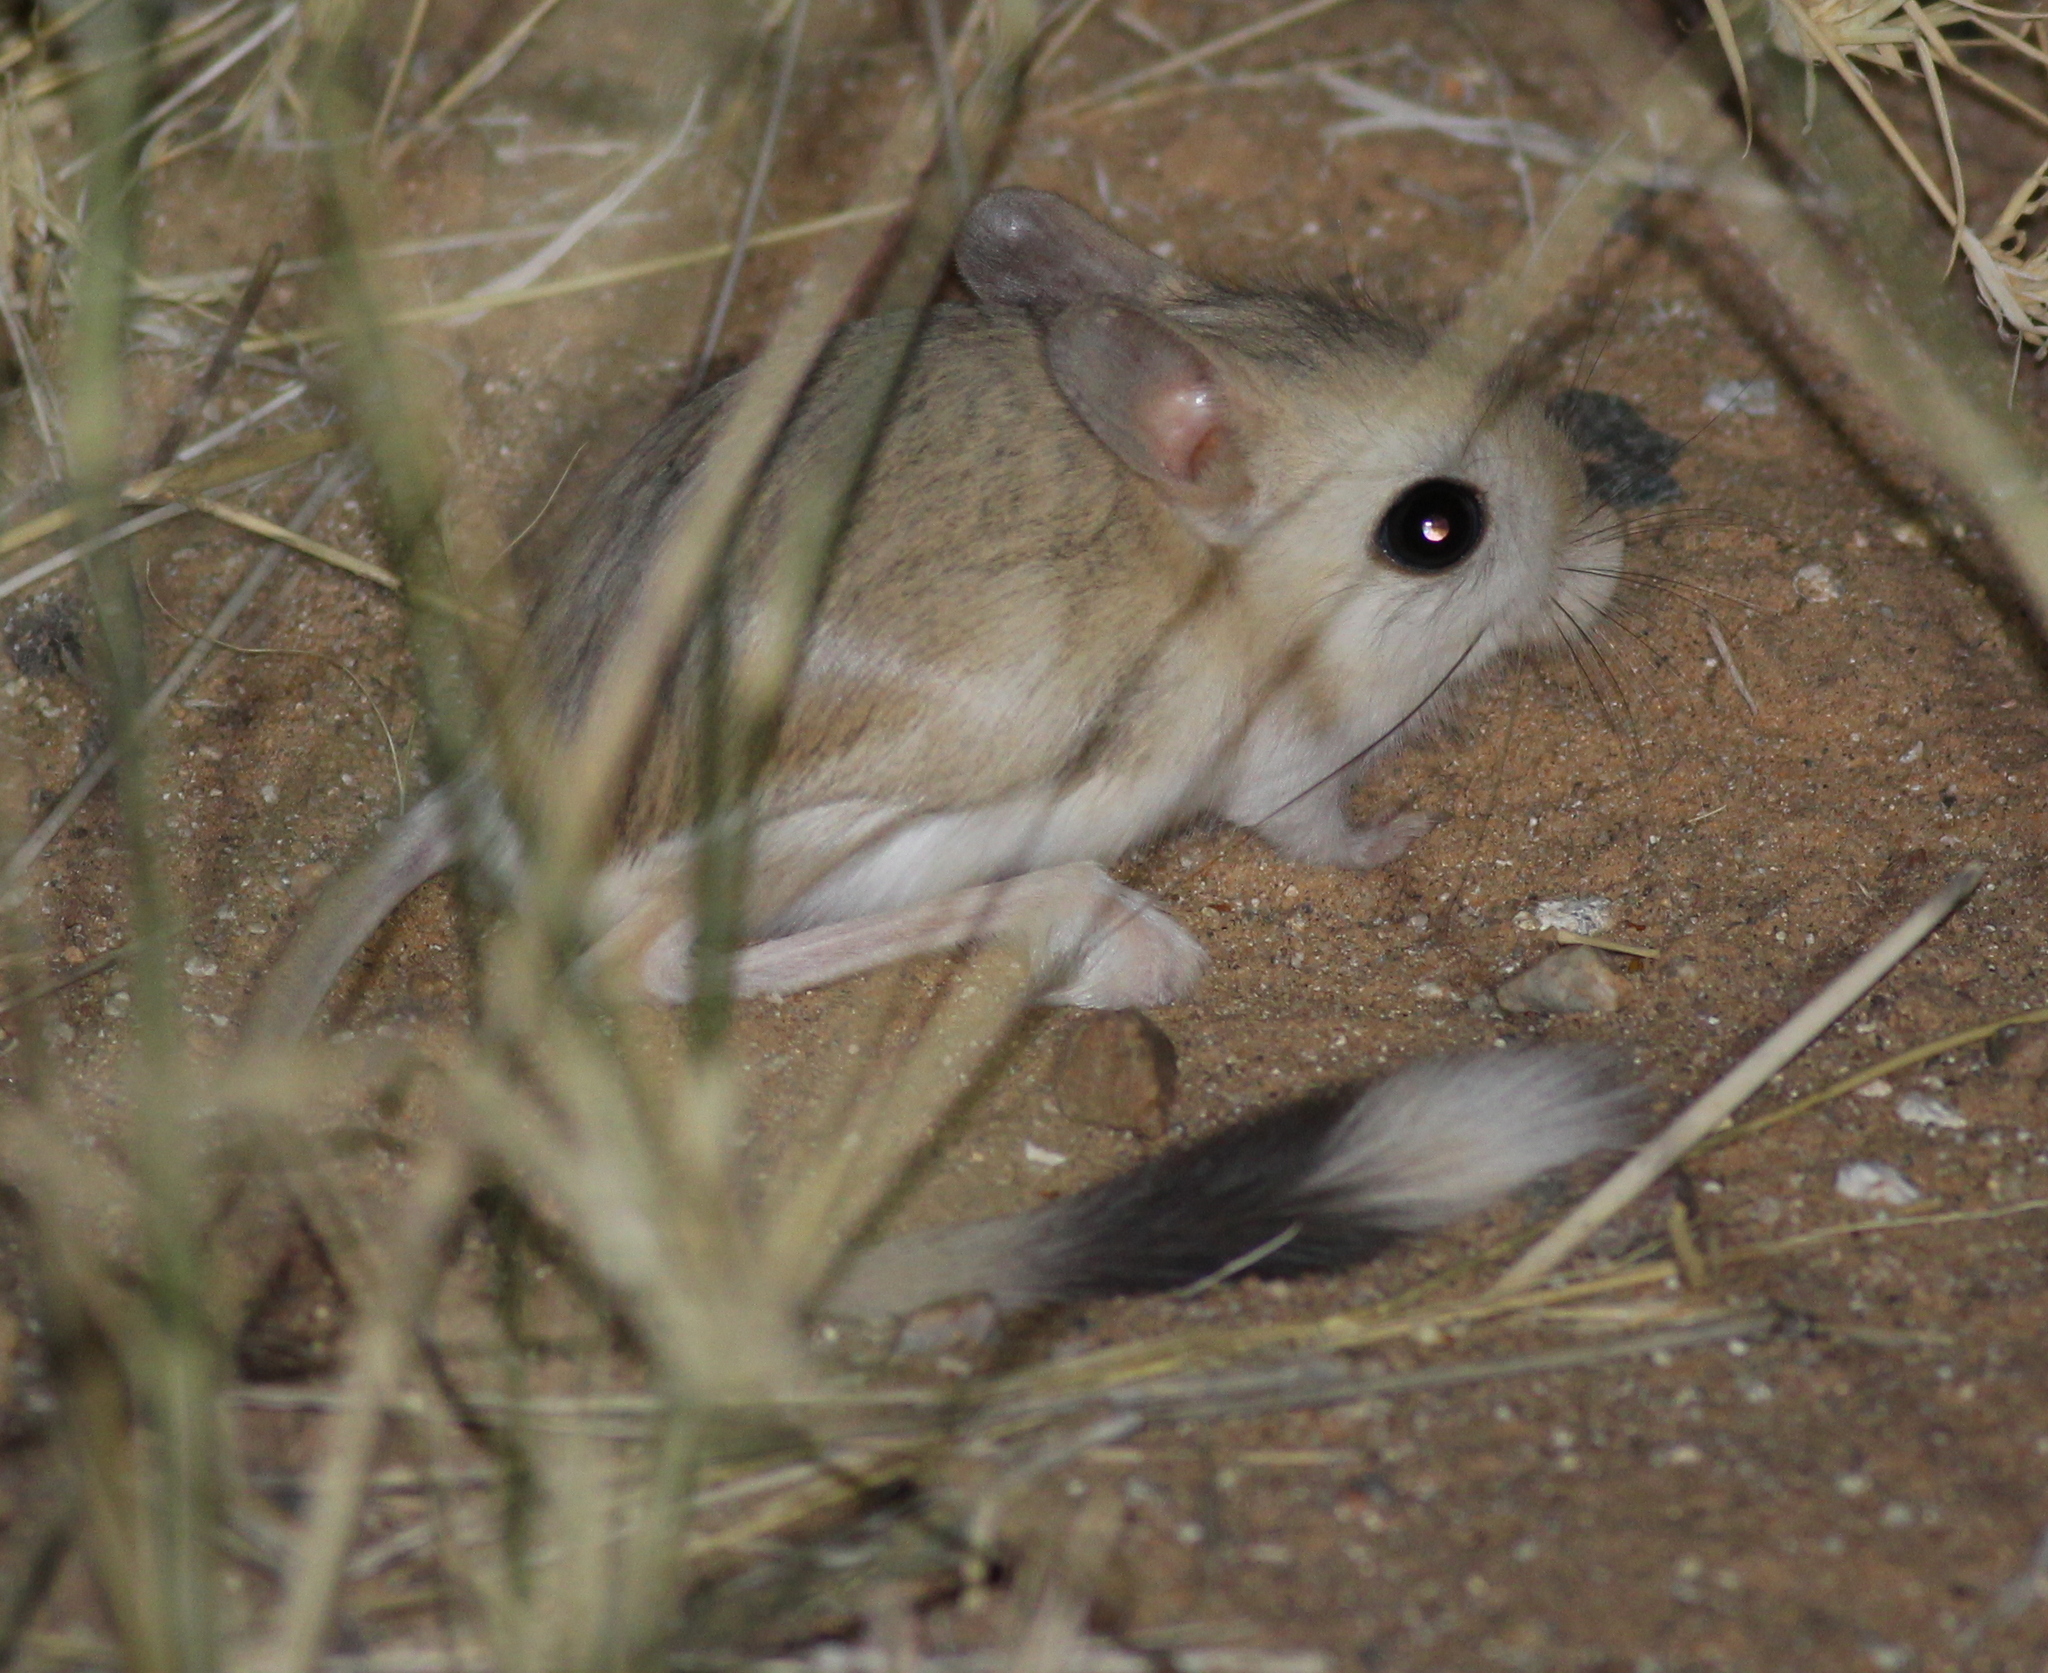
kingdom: Animalia
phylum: Chordata
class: Mammalia
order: Rodentia
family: Dipodidae
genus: Jaculus
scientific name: Jaculus jaculus
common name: Lesser egyptian jerboa
